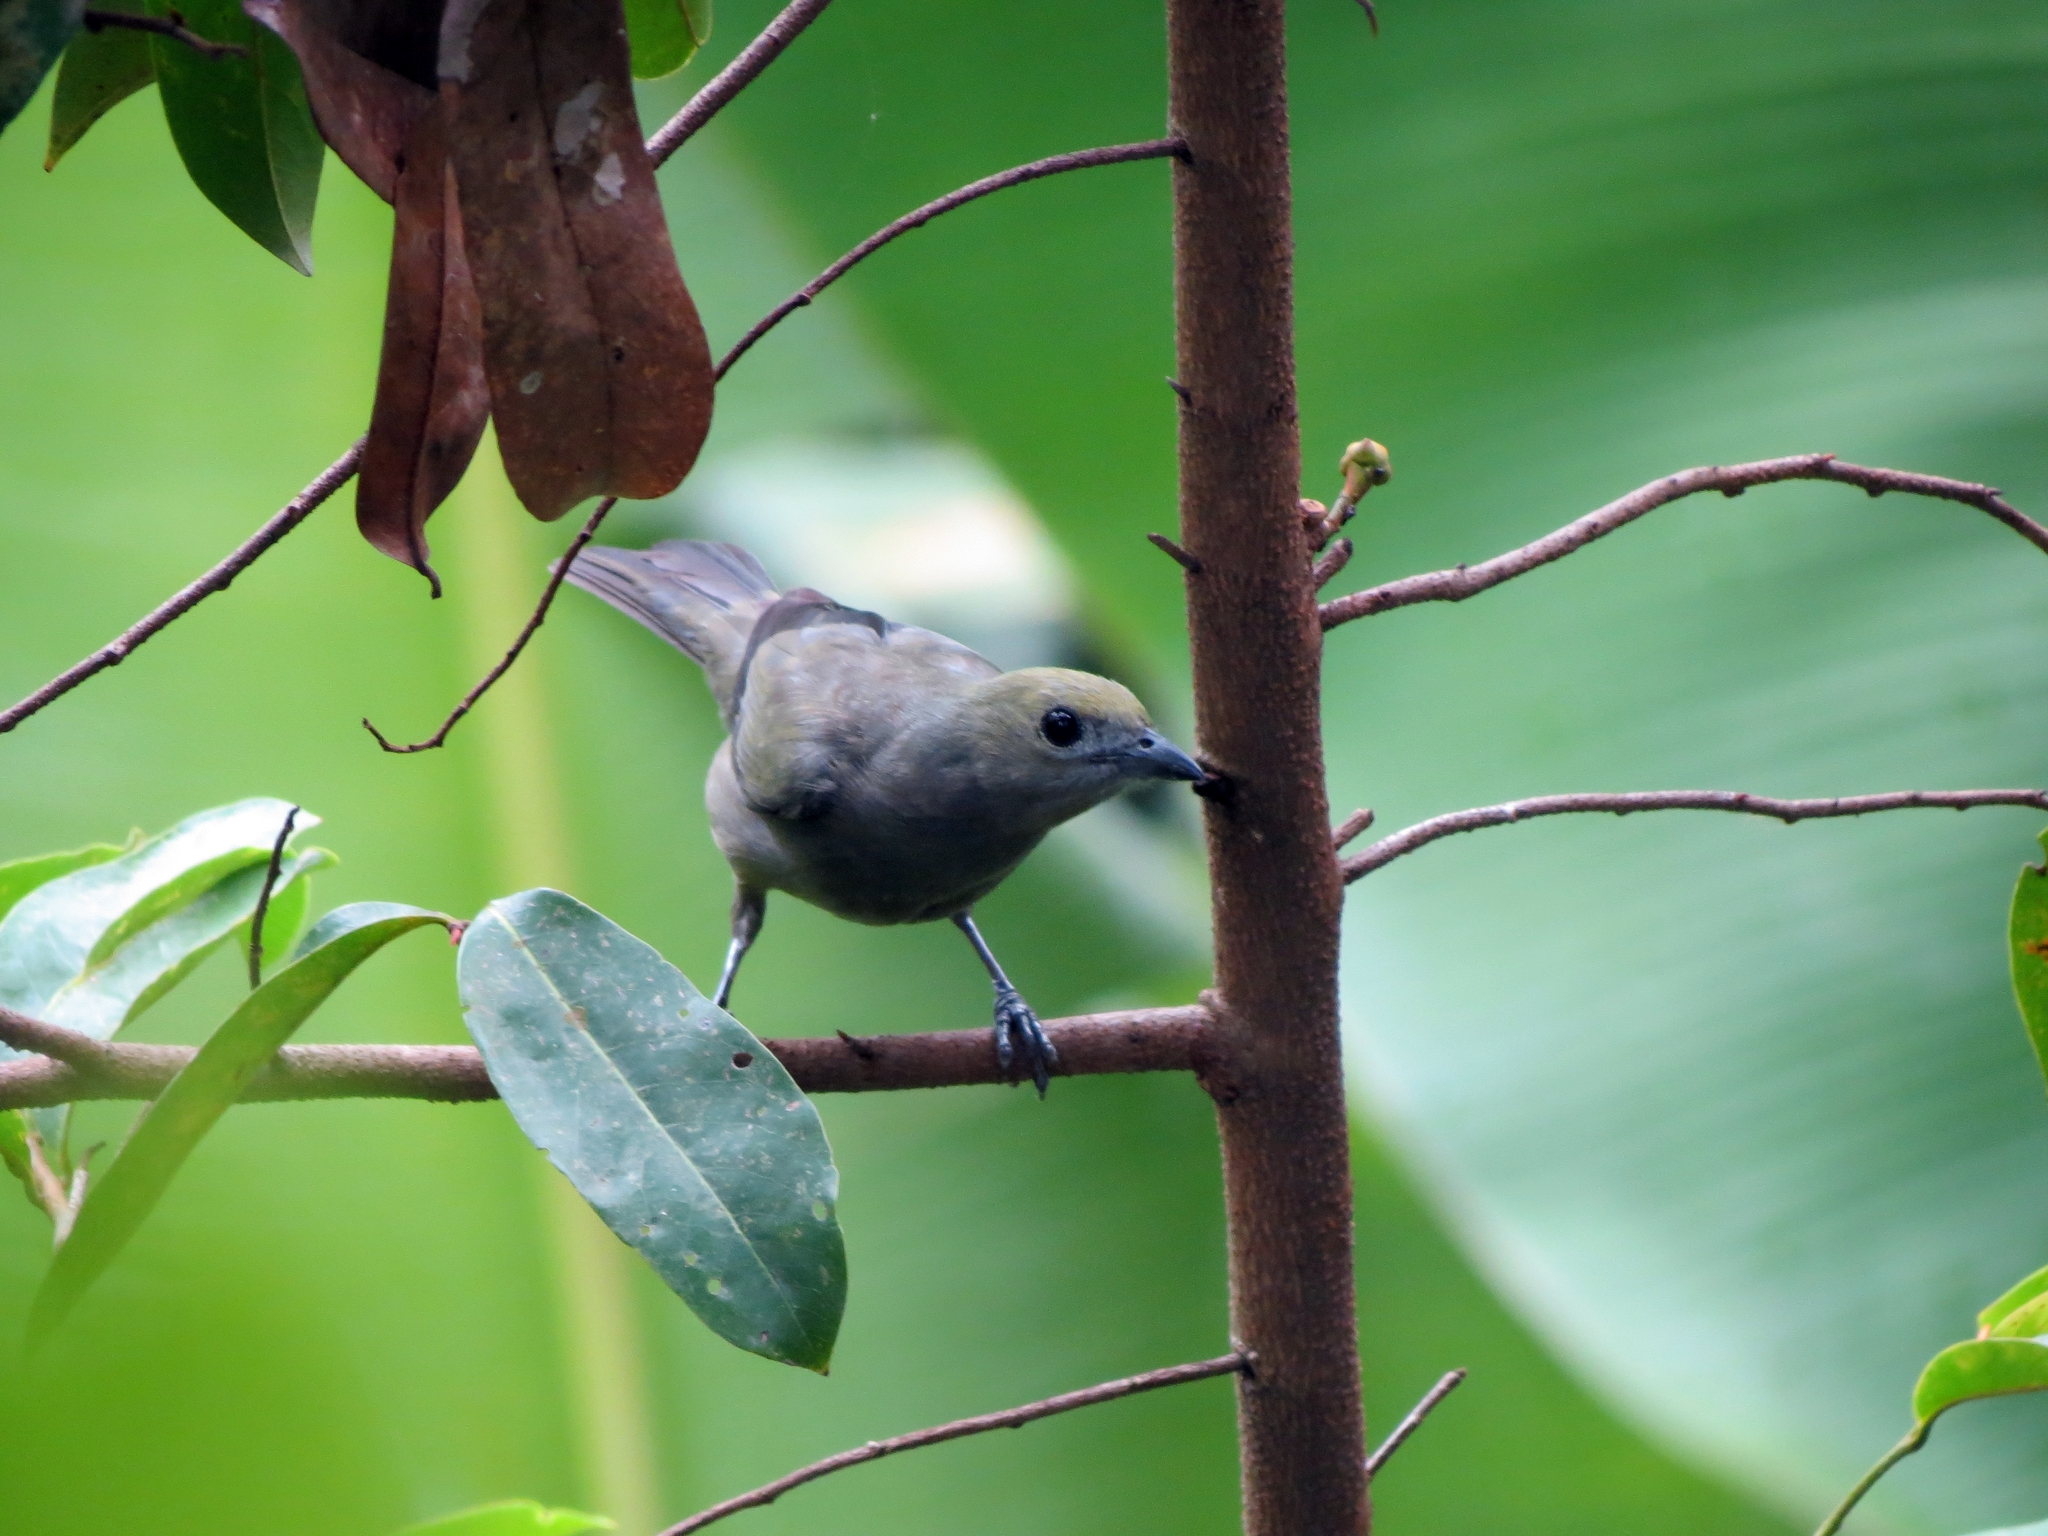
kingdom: Animalia
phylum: Chordata
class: Aves
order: Passeriformes
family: Thraupidae
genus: Thraupis
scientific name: Thraupis palmarum
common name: Palm tanager
